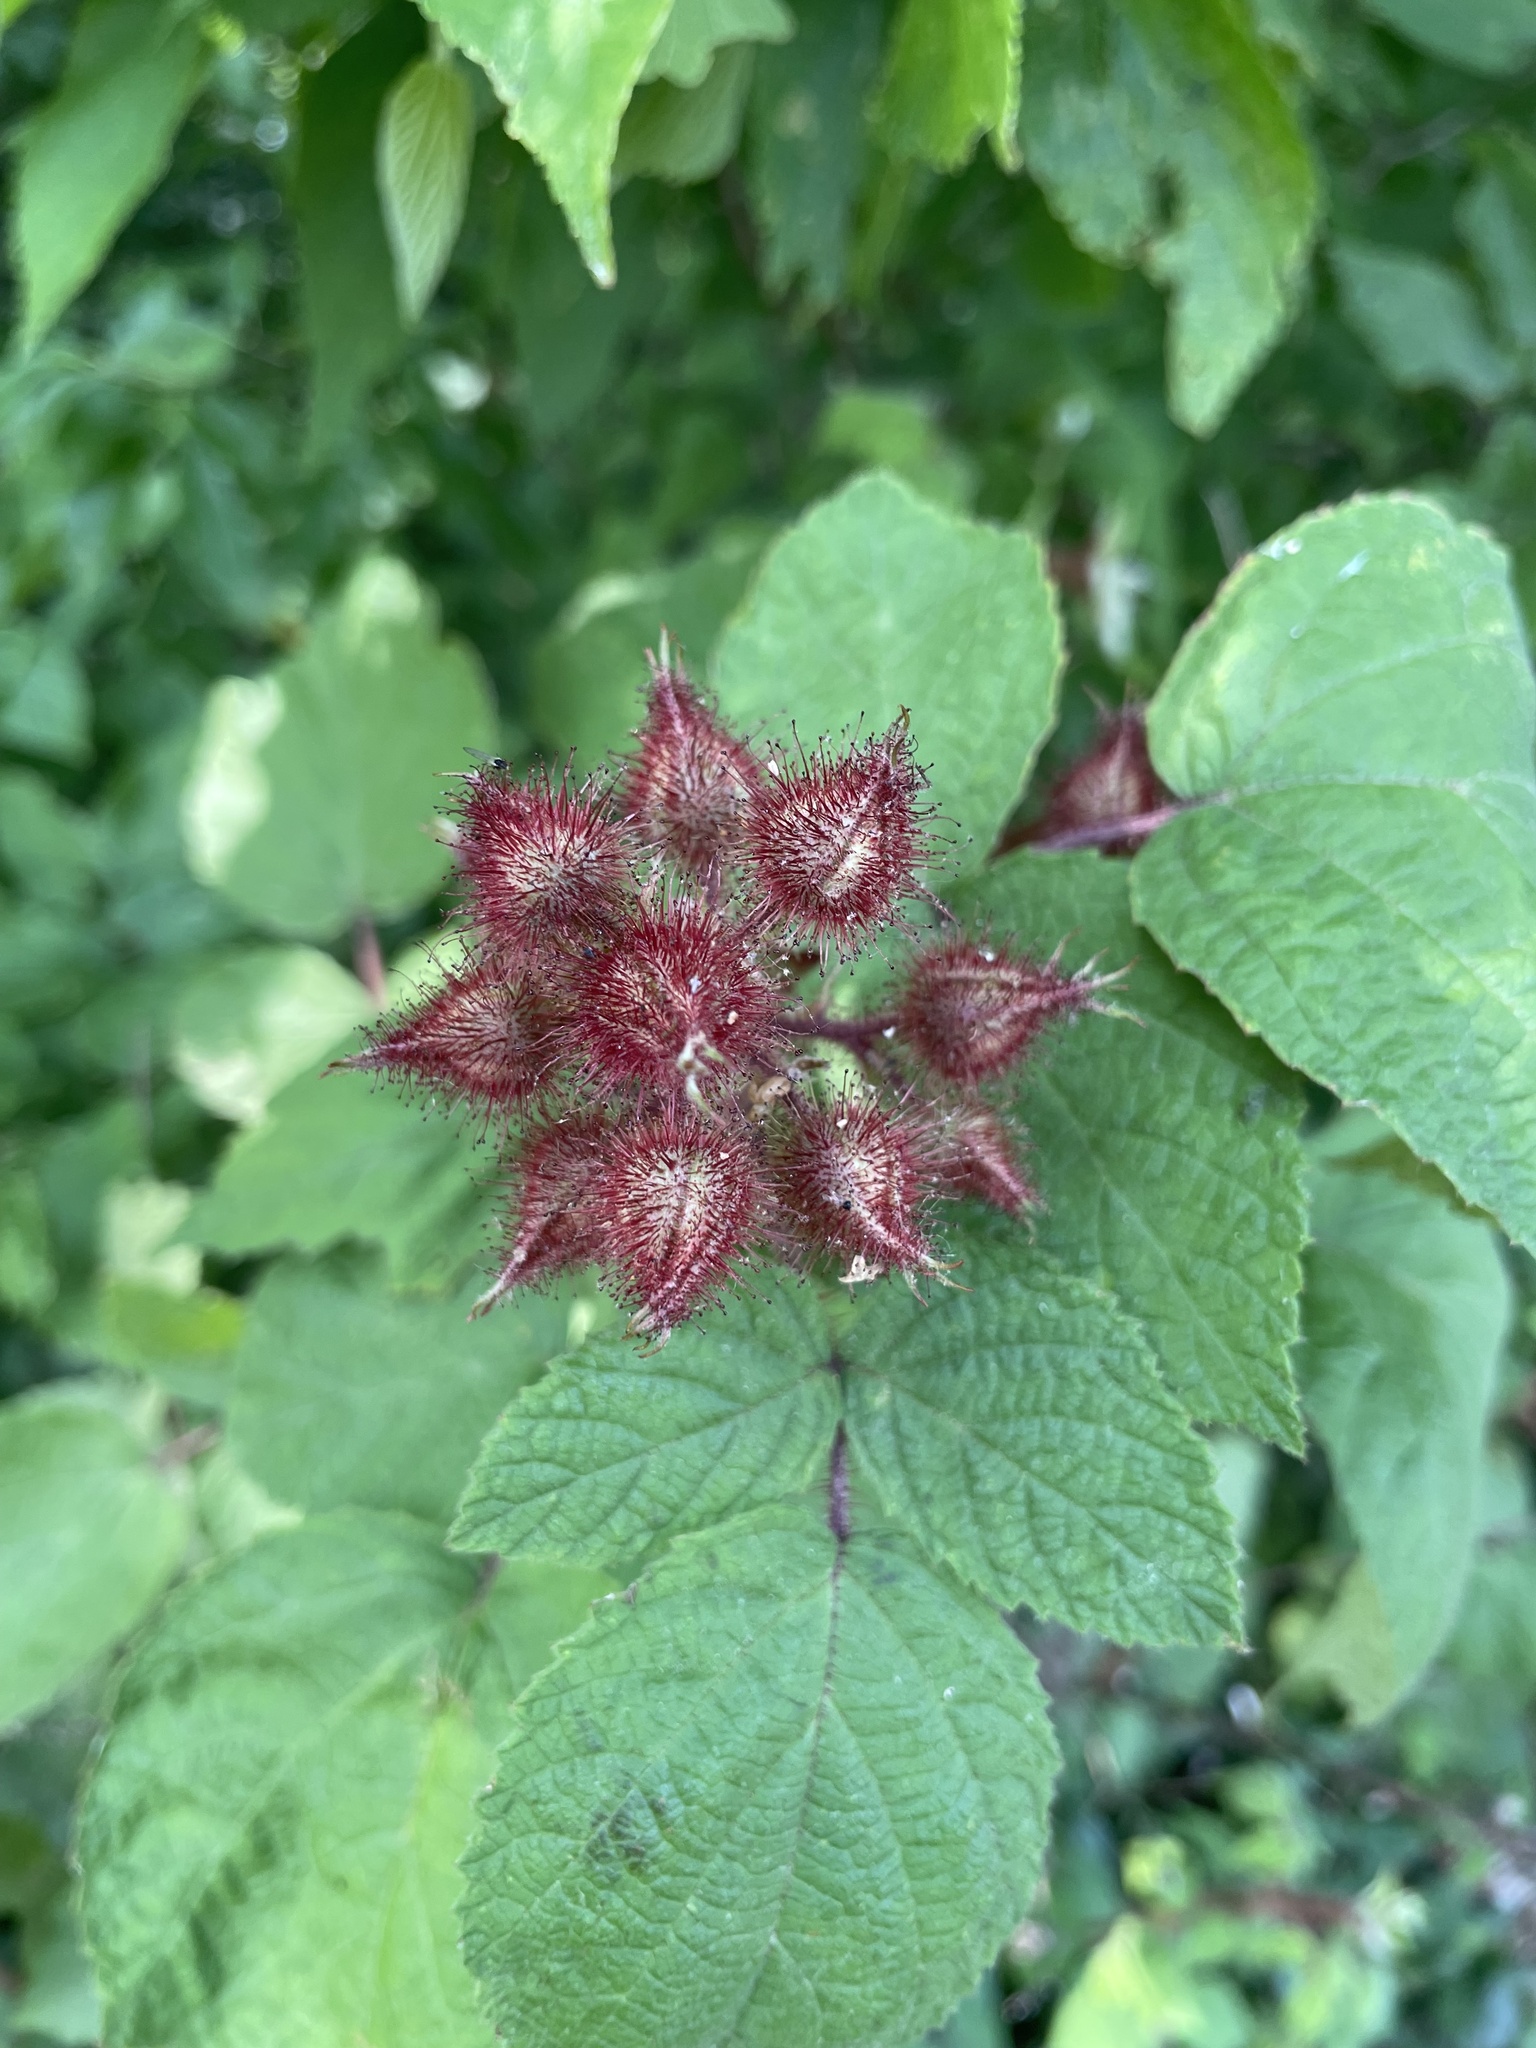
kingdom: Plantae
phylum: Tracheophyta
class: Magnoliopsida
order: Rosales
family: Rosaceae
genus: Rubus
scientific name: Rubus phoenicolasius
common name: Japanese wineberry
